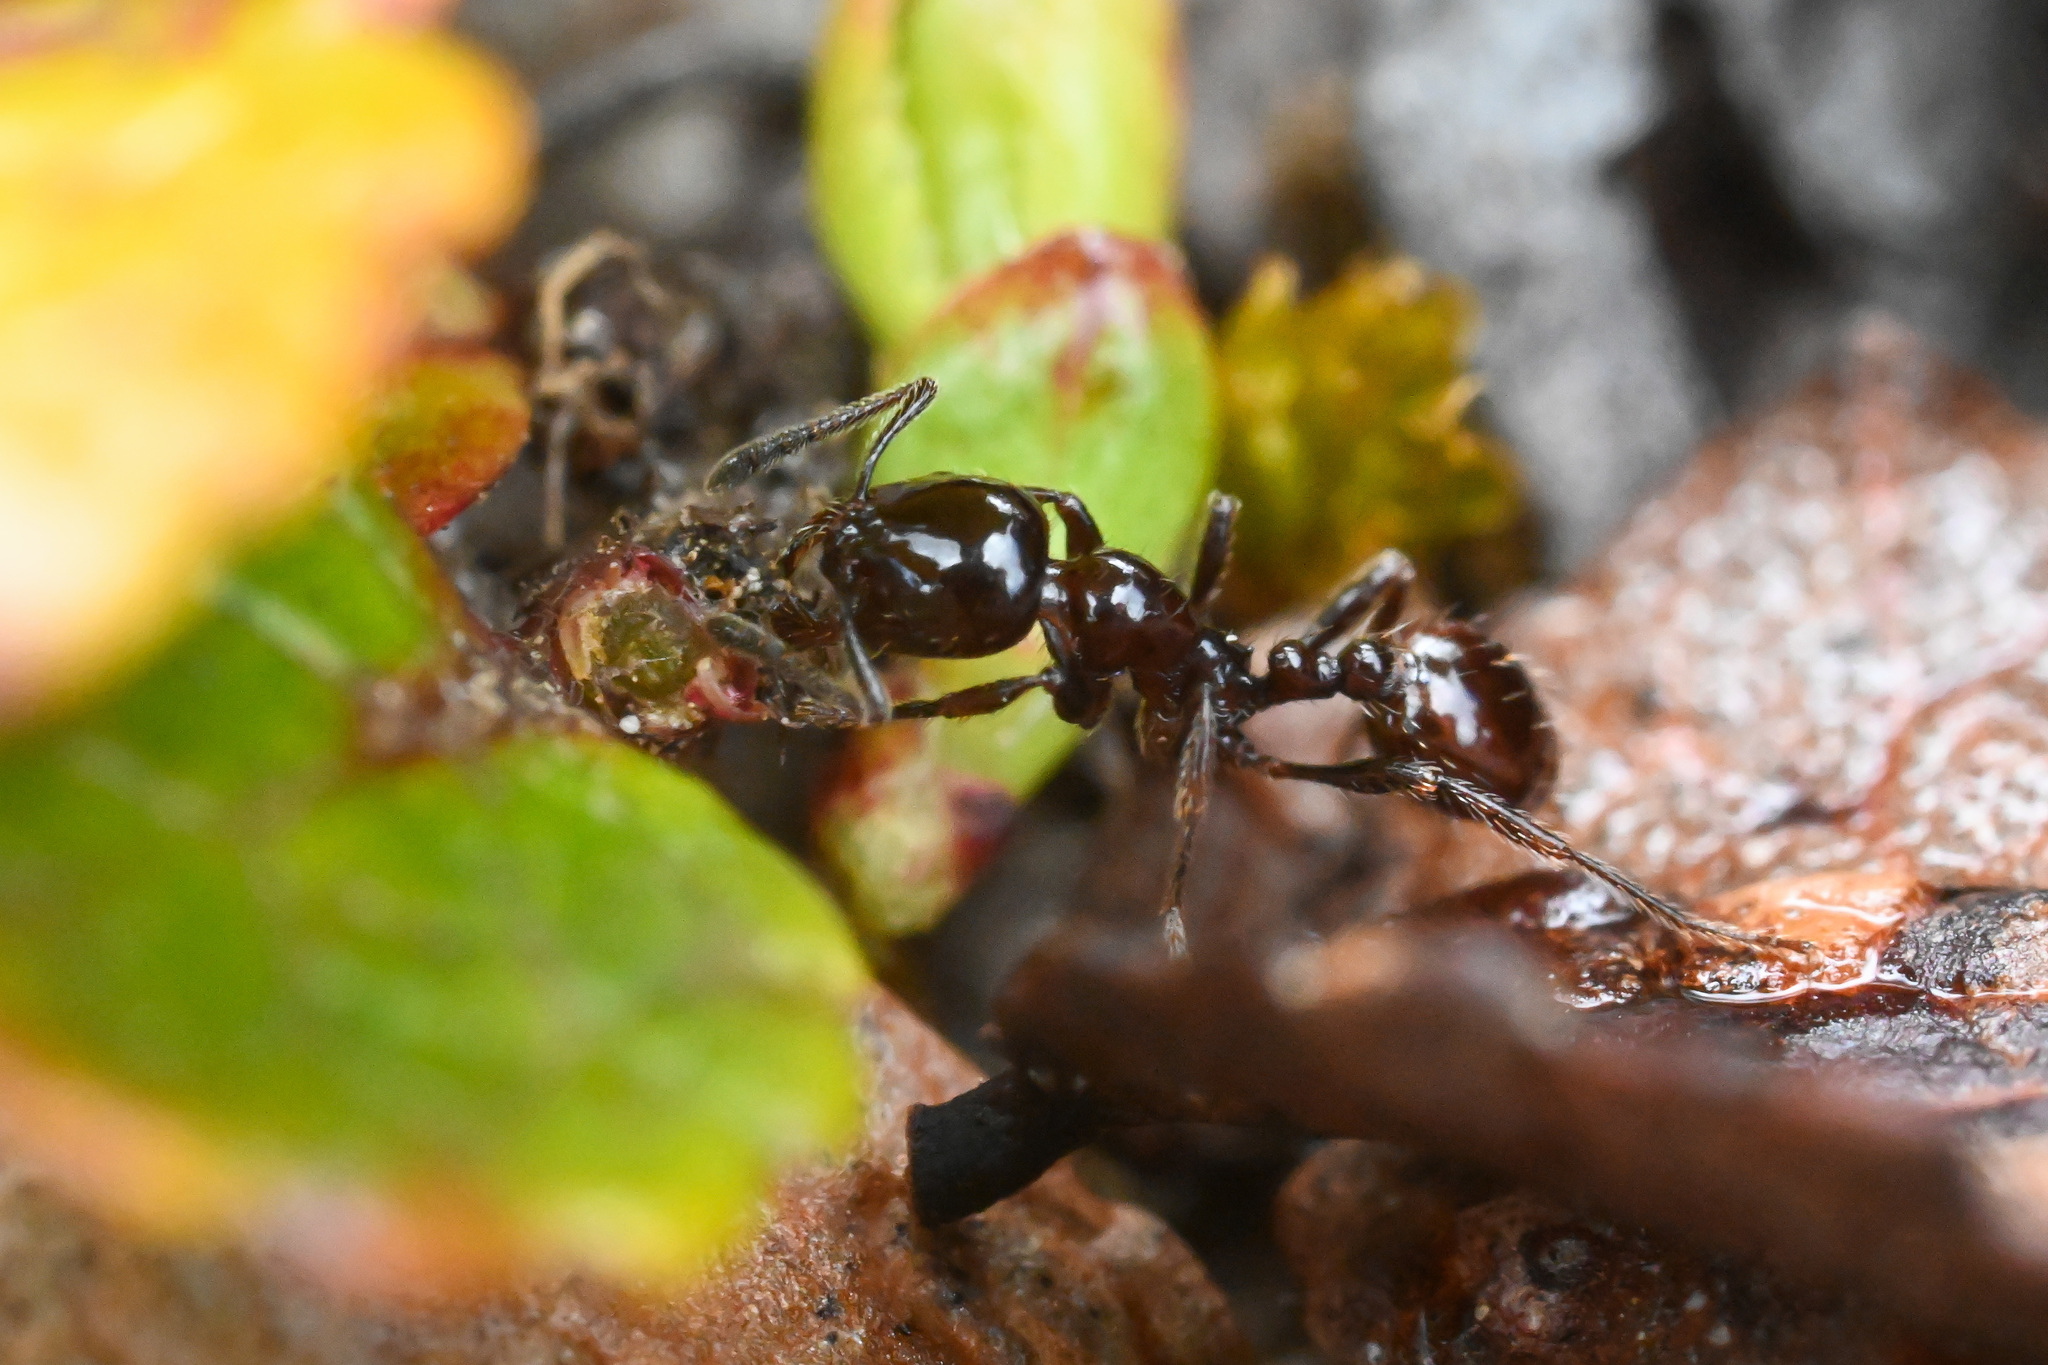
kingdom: Animalia
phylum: Arthropoda
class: Insecta
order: Hymenoptera
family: Formicidae
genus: Monomorium
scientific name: Monomorium antarcticum
